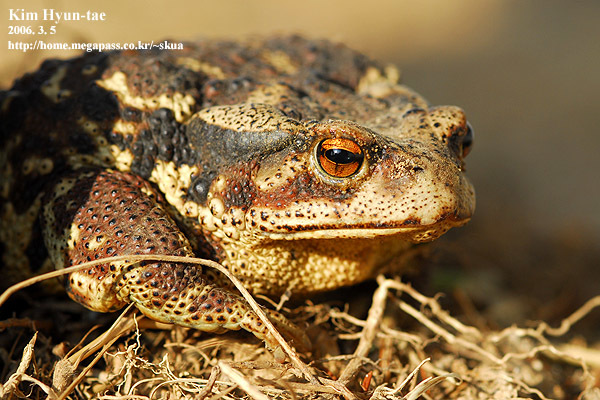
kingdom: Animalia
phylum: Chordata
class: Amphibia
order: Anura
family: Bufonidae
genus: Bufo
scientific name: Bufo gargarizans
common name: Asiatic toad
